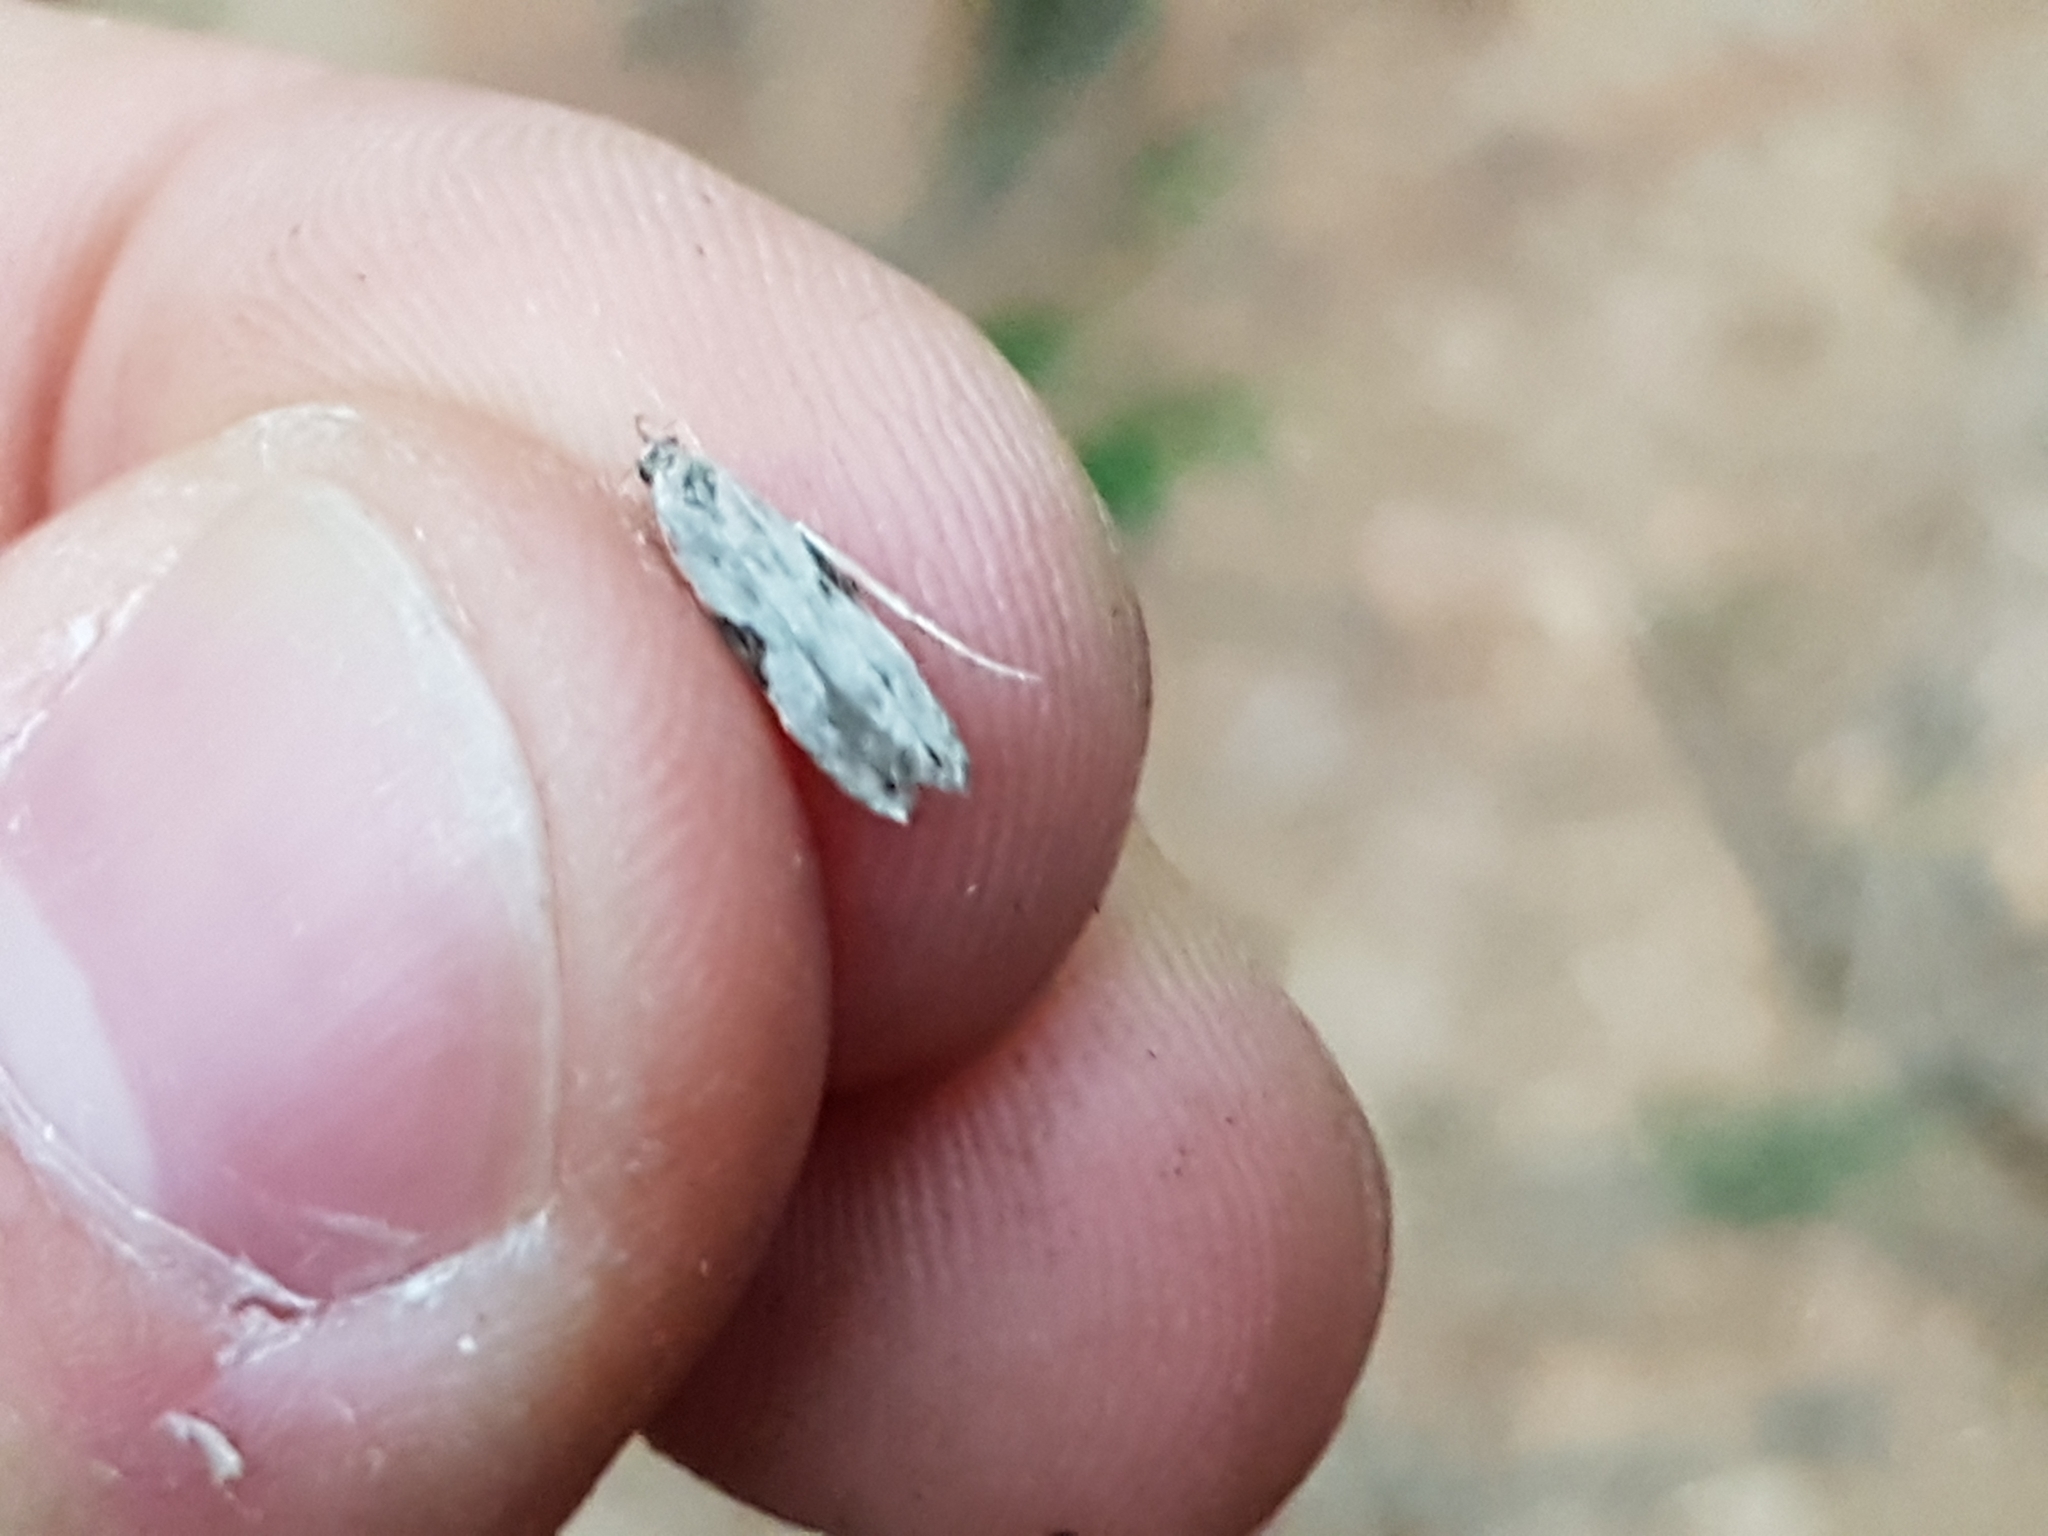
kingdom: Animalia
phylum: Arthropoda
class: Insecta
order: Lepidoptera
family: Gelechiidae
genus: Hypatima
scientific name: Hypatima rhomboidella
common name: Square-spot crest
